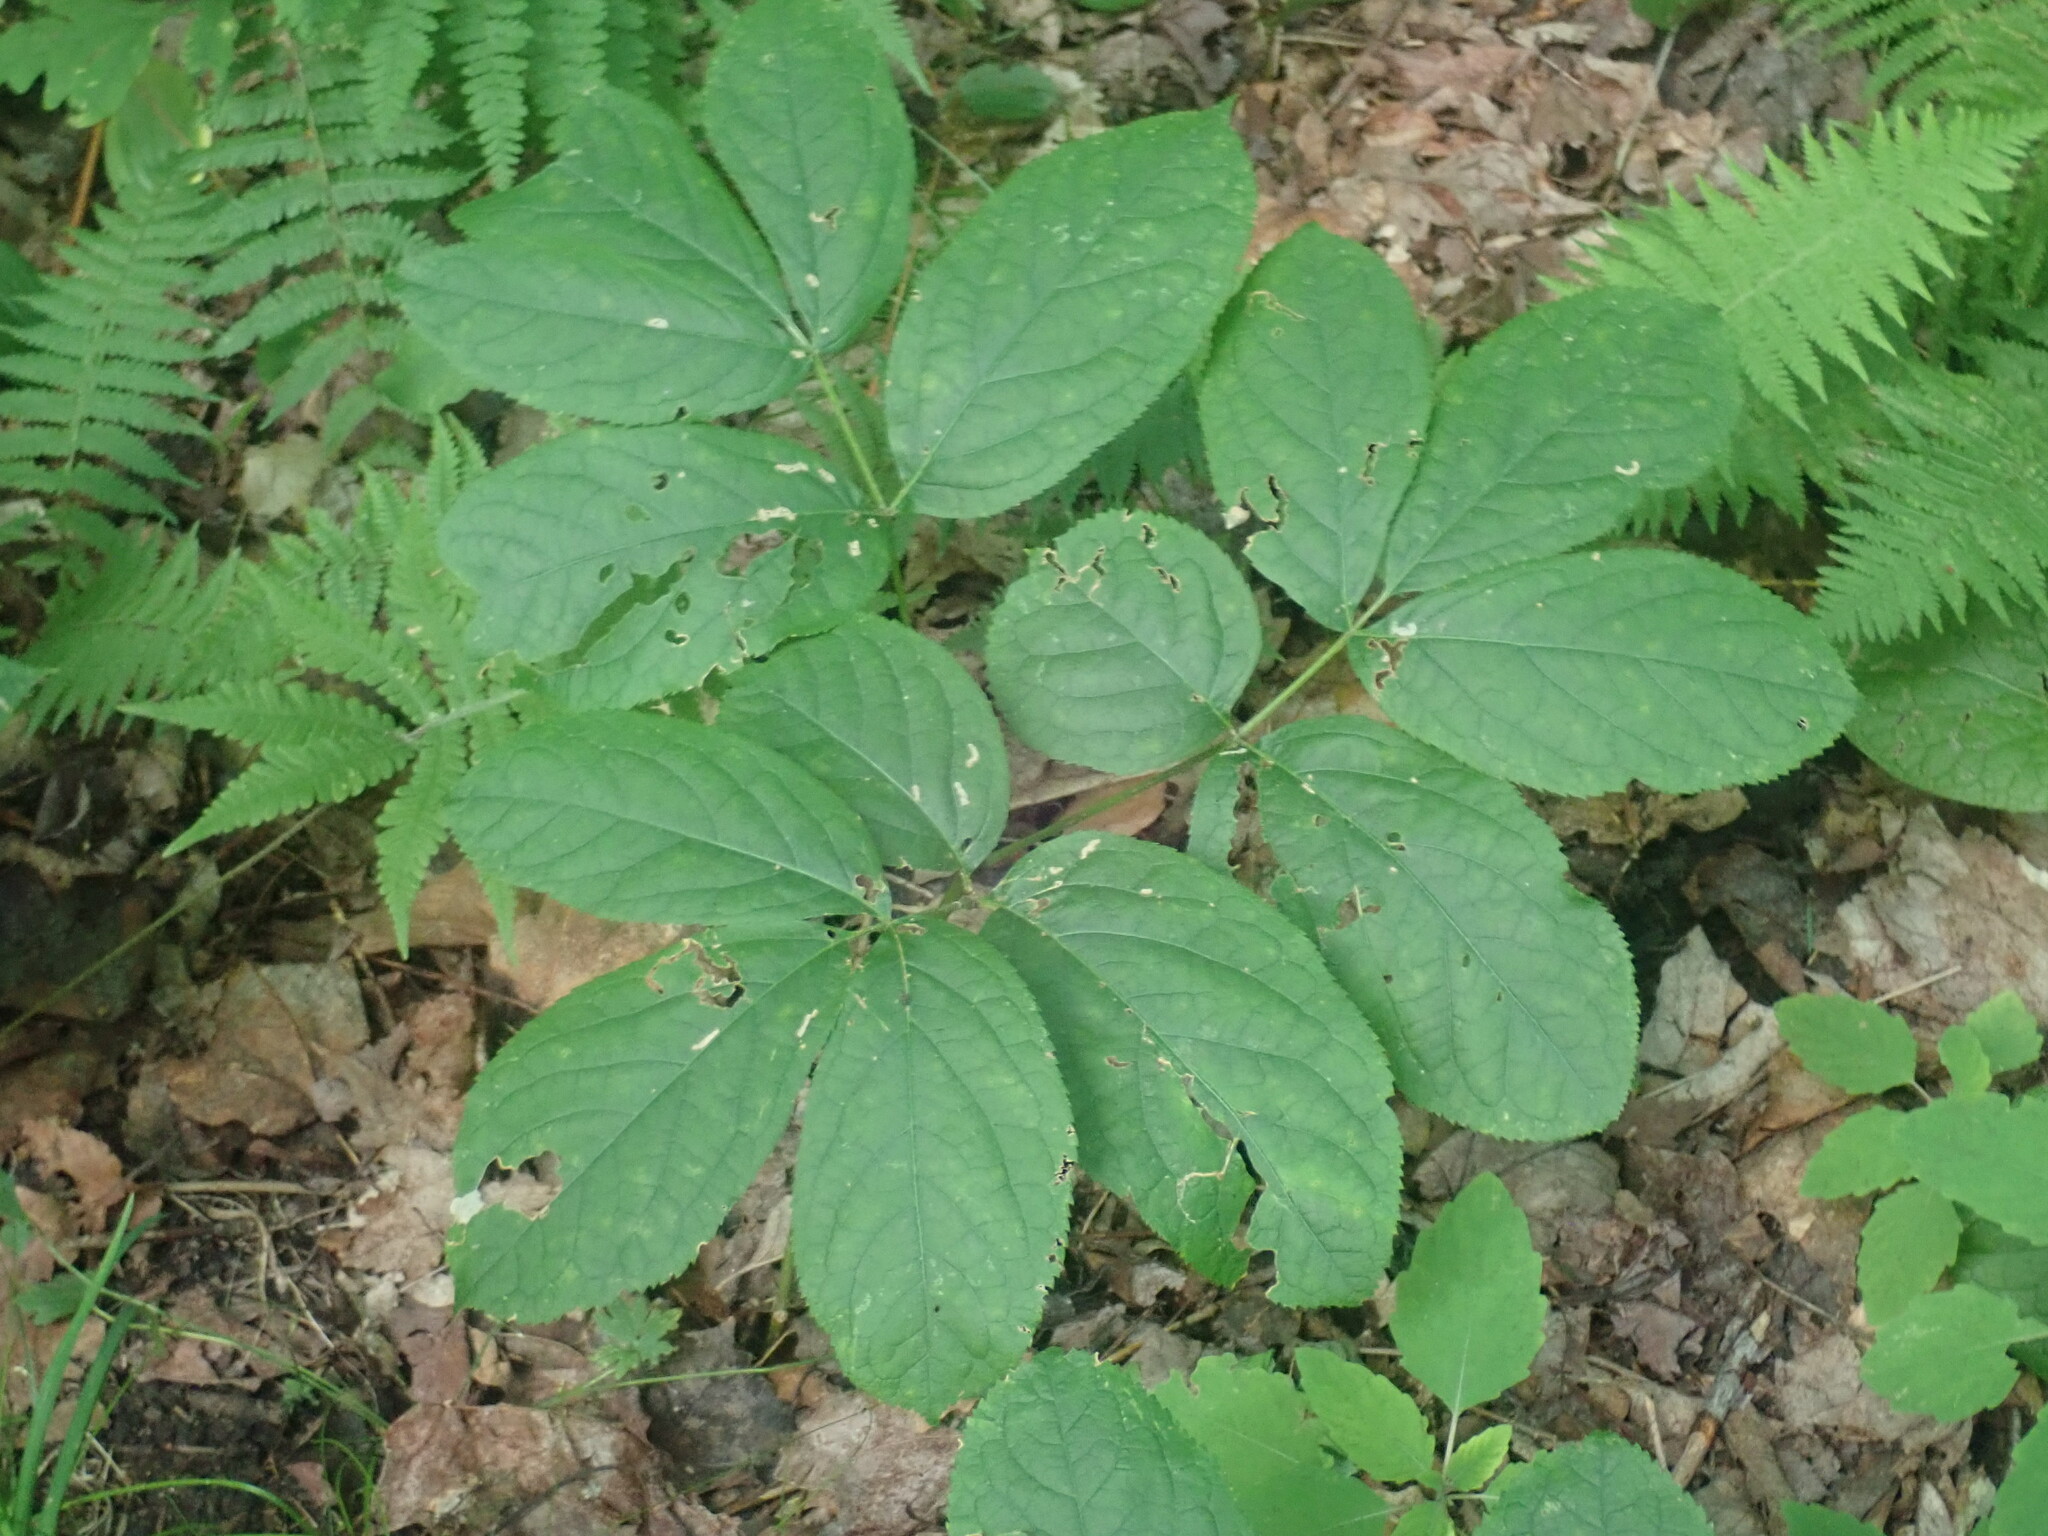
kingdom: Plantae
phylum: Tracheophyta
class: Magnoliopsida
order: Apiales
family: Araliaceae
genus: Aralia
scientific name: Aralia nudicaulis
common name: Wild sarsaparilla
